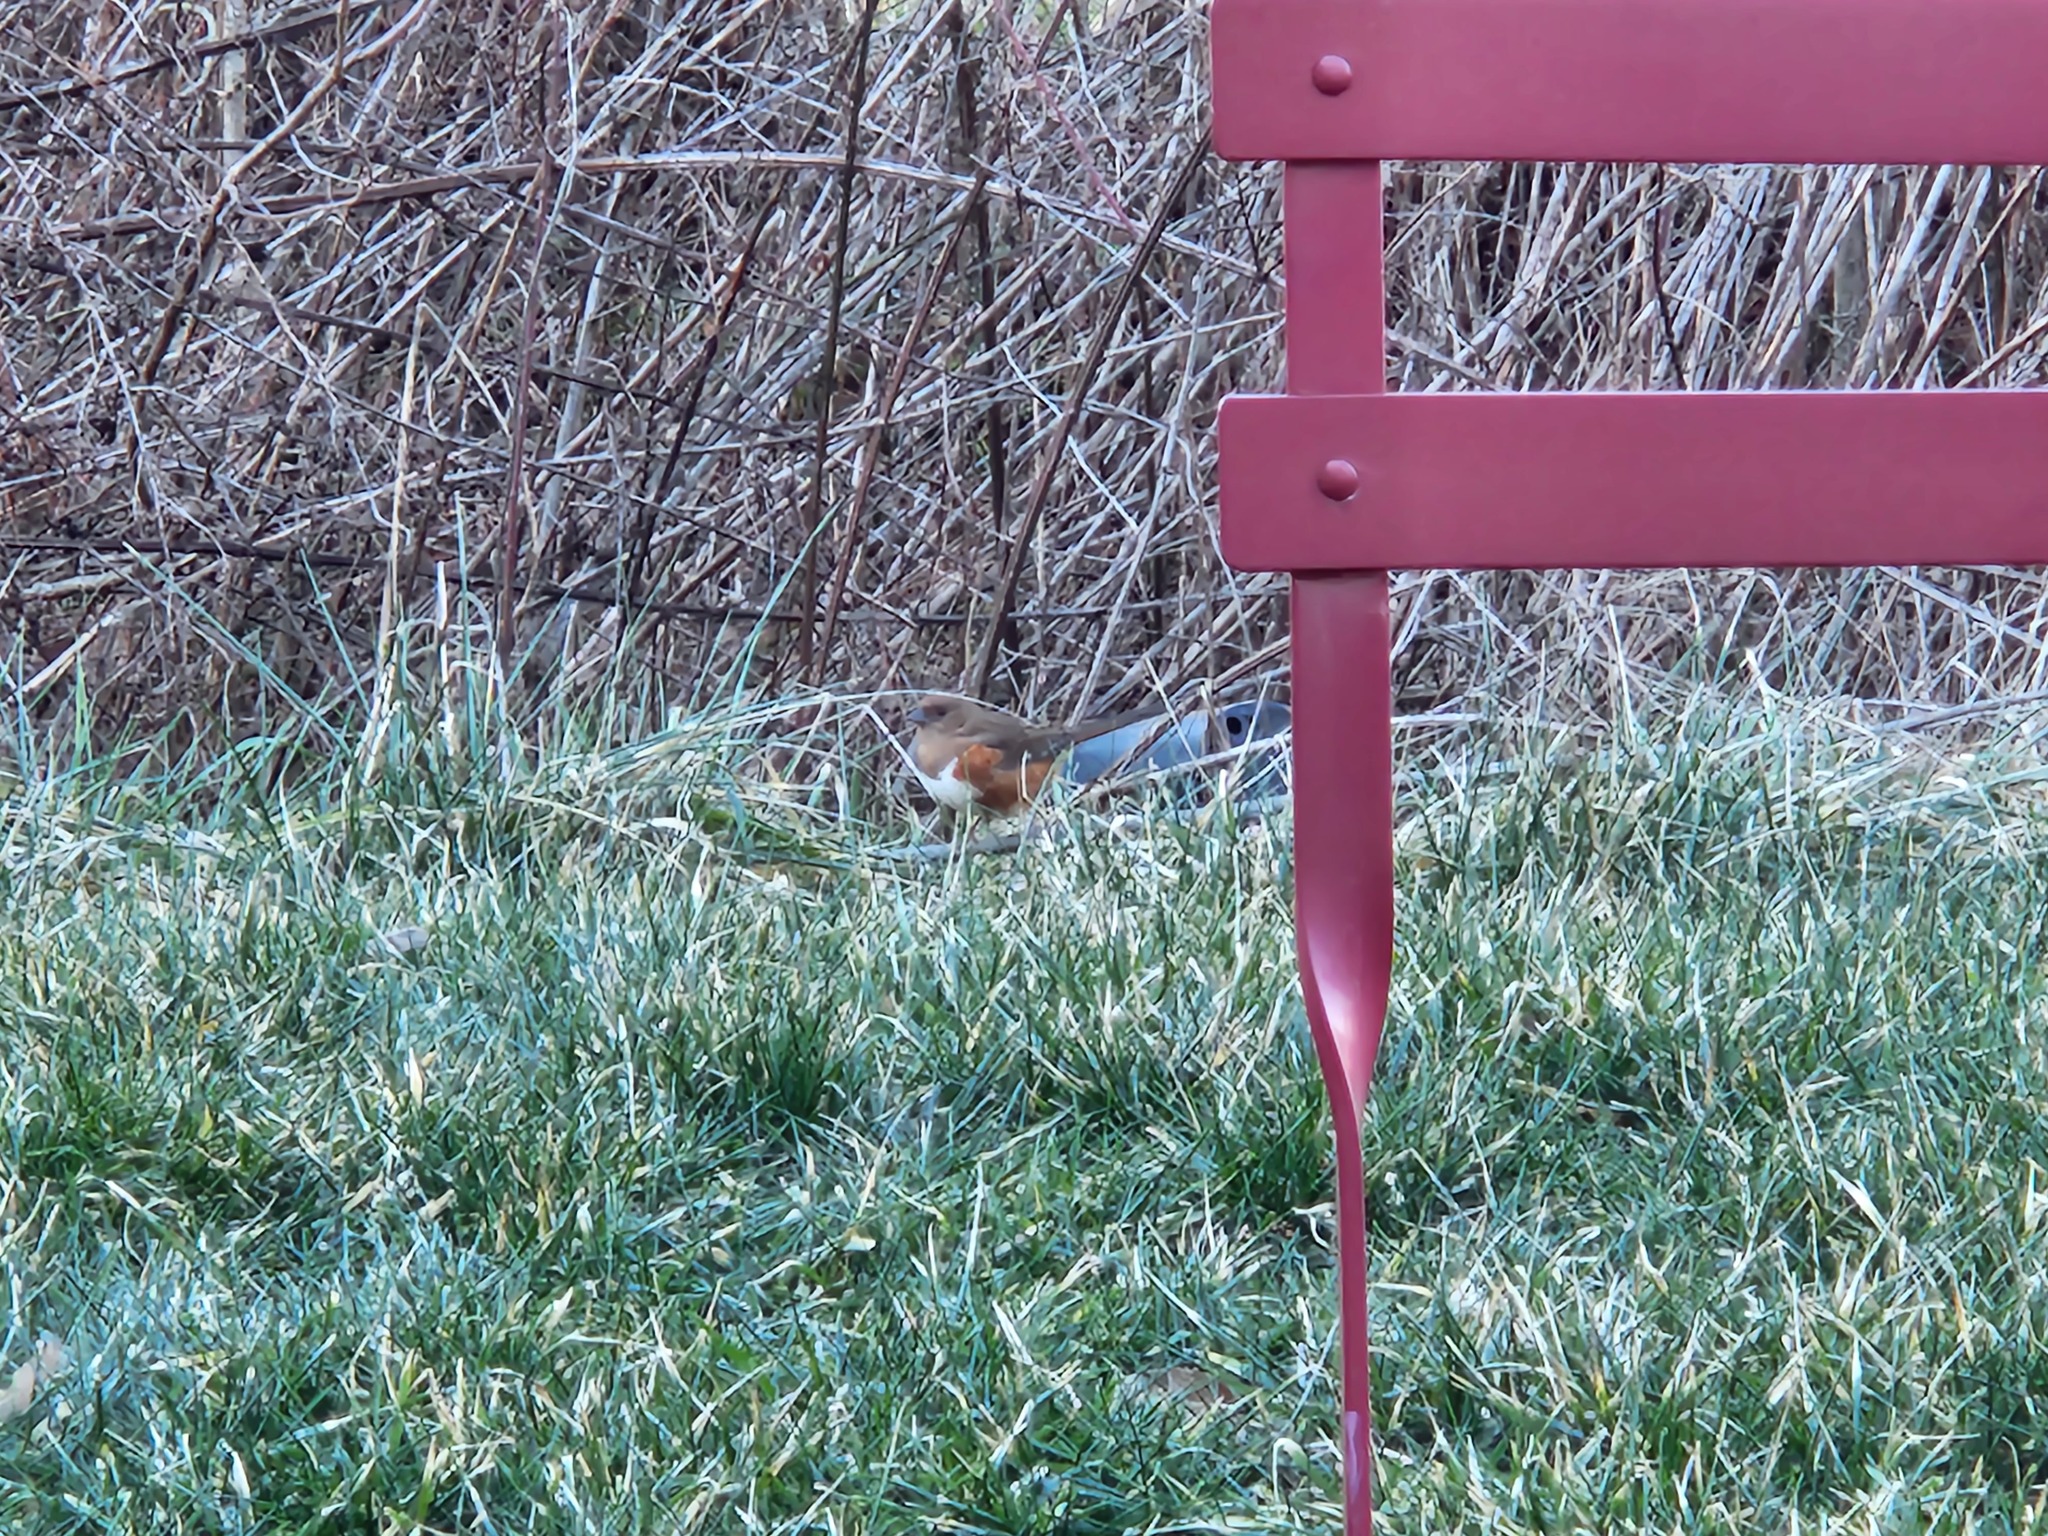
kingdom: Animalia
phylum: Chordata
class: Aves
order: Passeriformes
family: Passerellidae
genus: Pipilo
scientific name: Pipilo erythrophthalmus
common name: Eastern towhee
